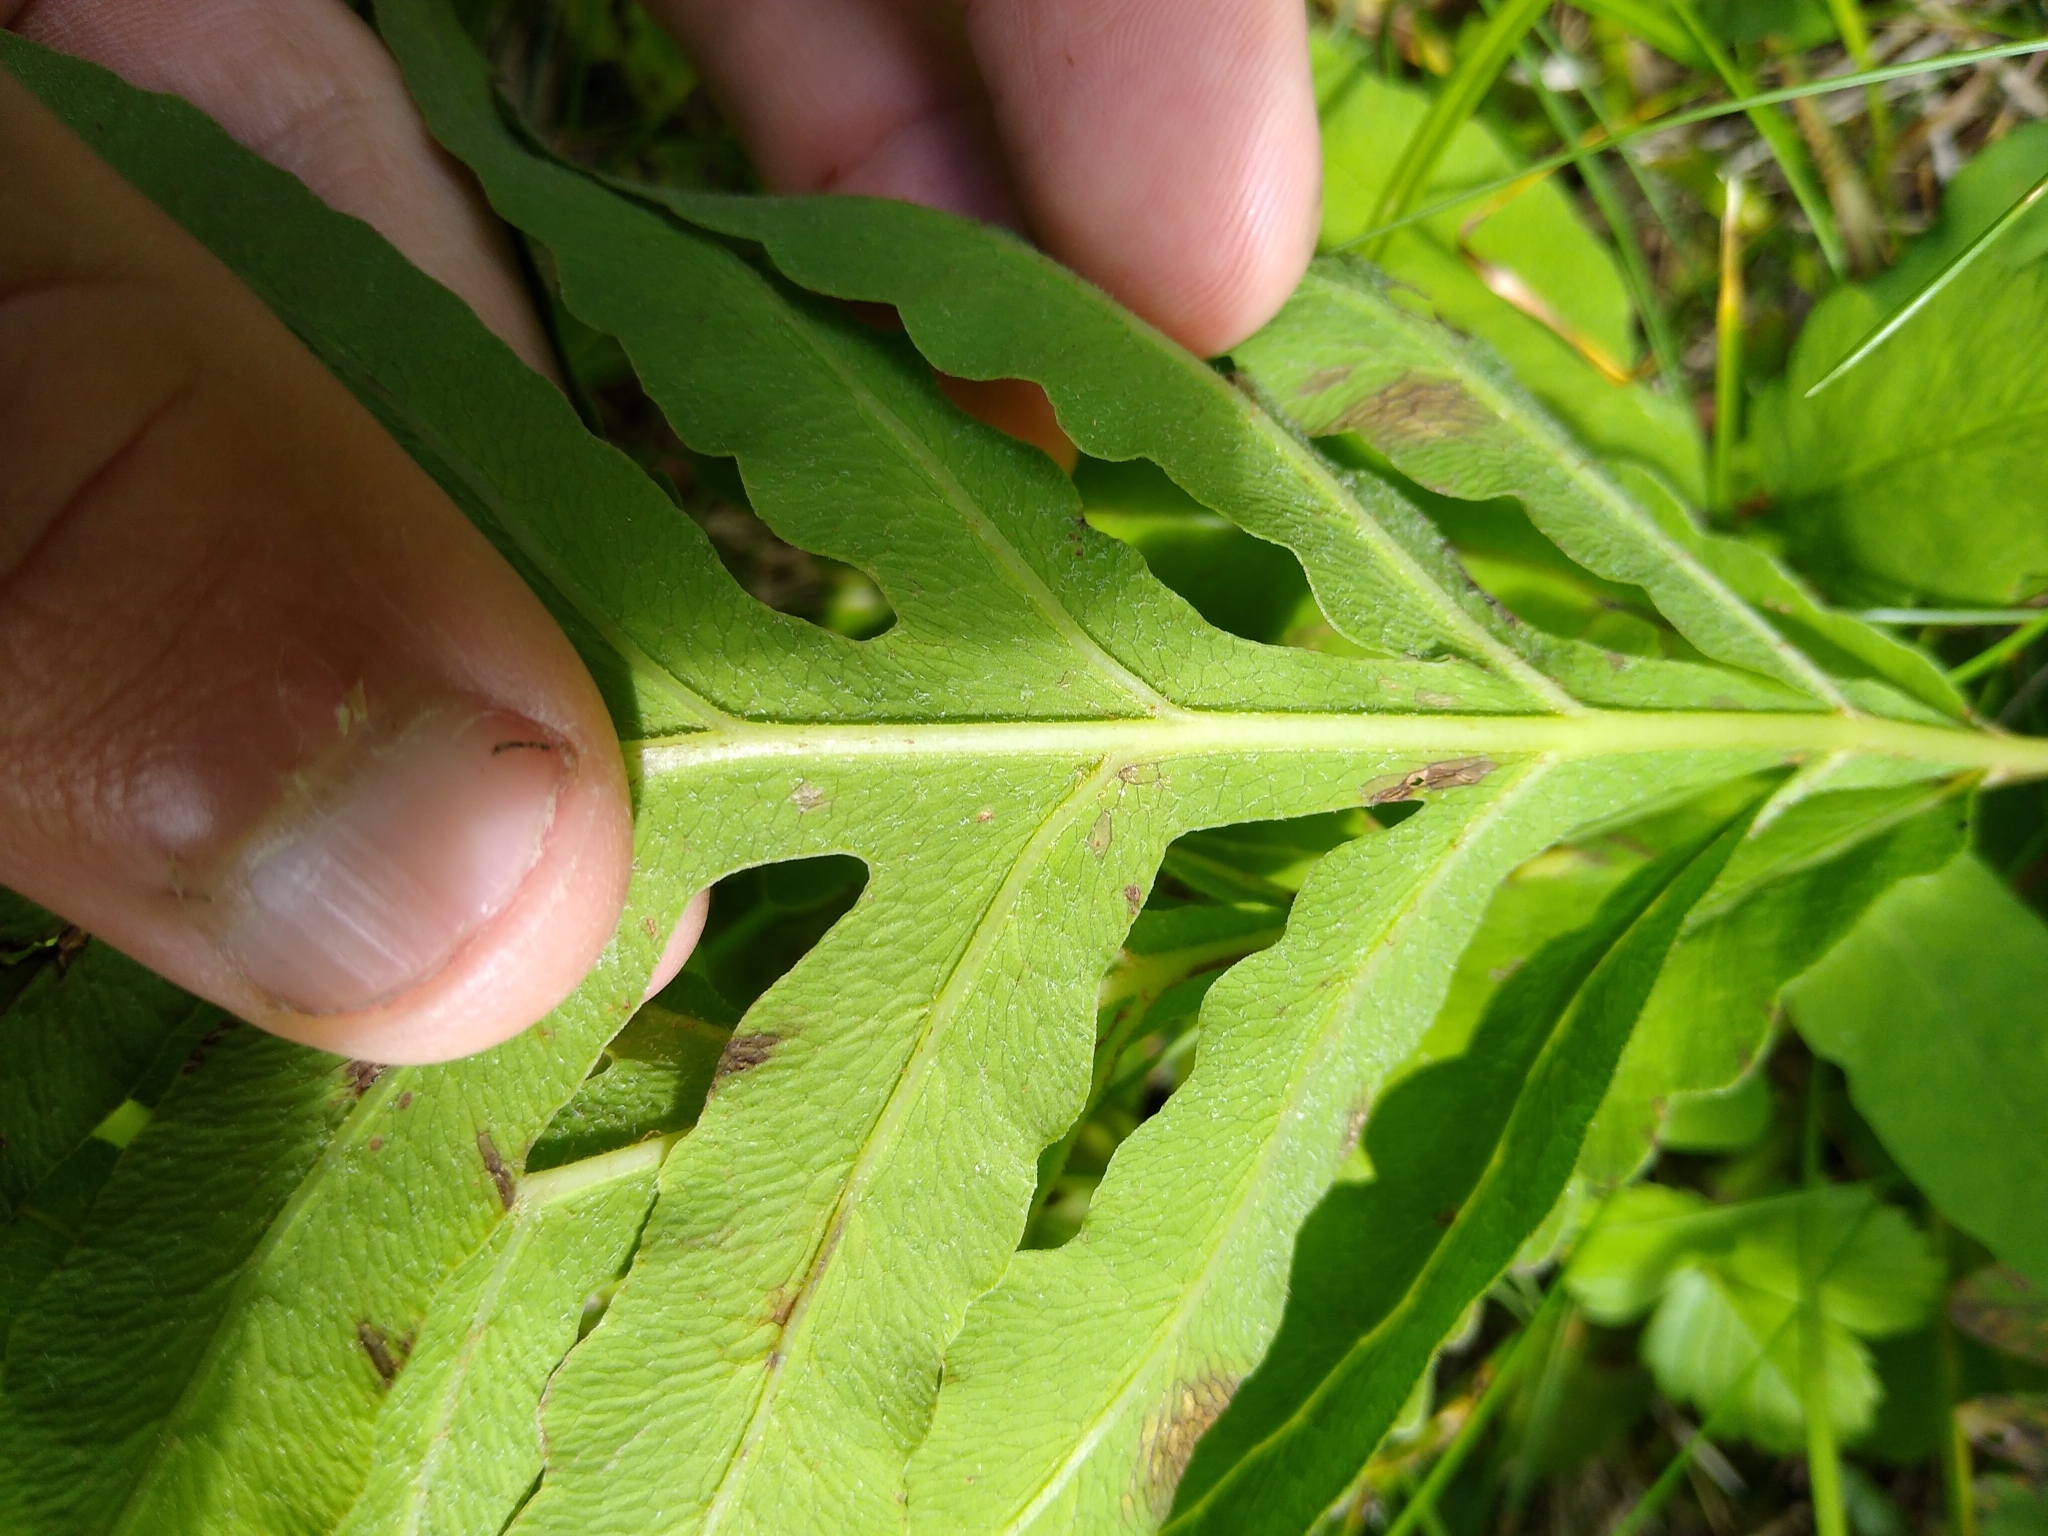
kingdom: Plantae
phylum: Tracheophyta
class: Polypodiopsida
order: Polypodiales
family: Onocleaceae
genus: Onoclea
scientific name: Onoclea sensibilis
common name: Sensitive fern
